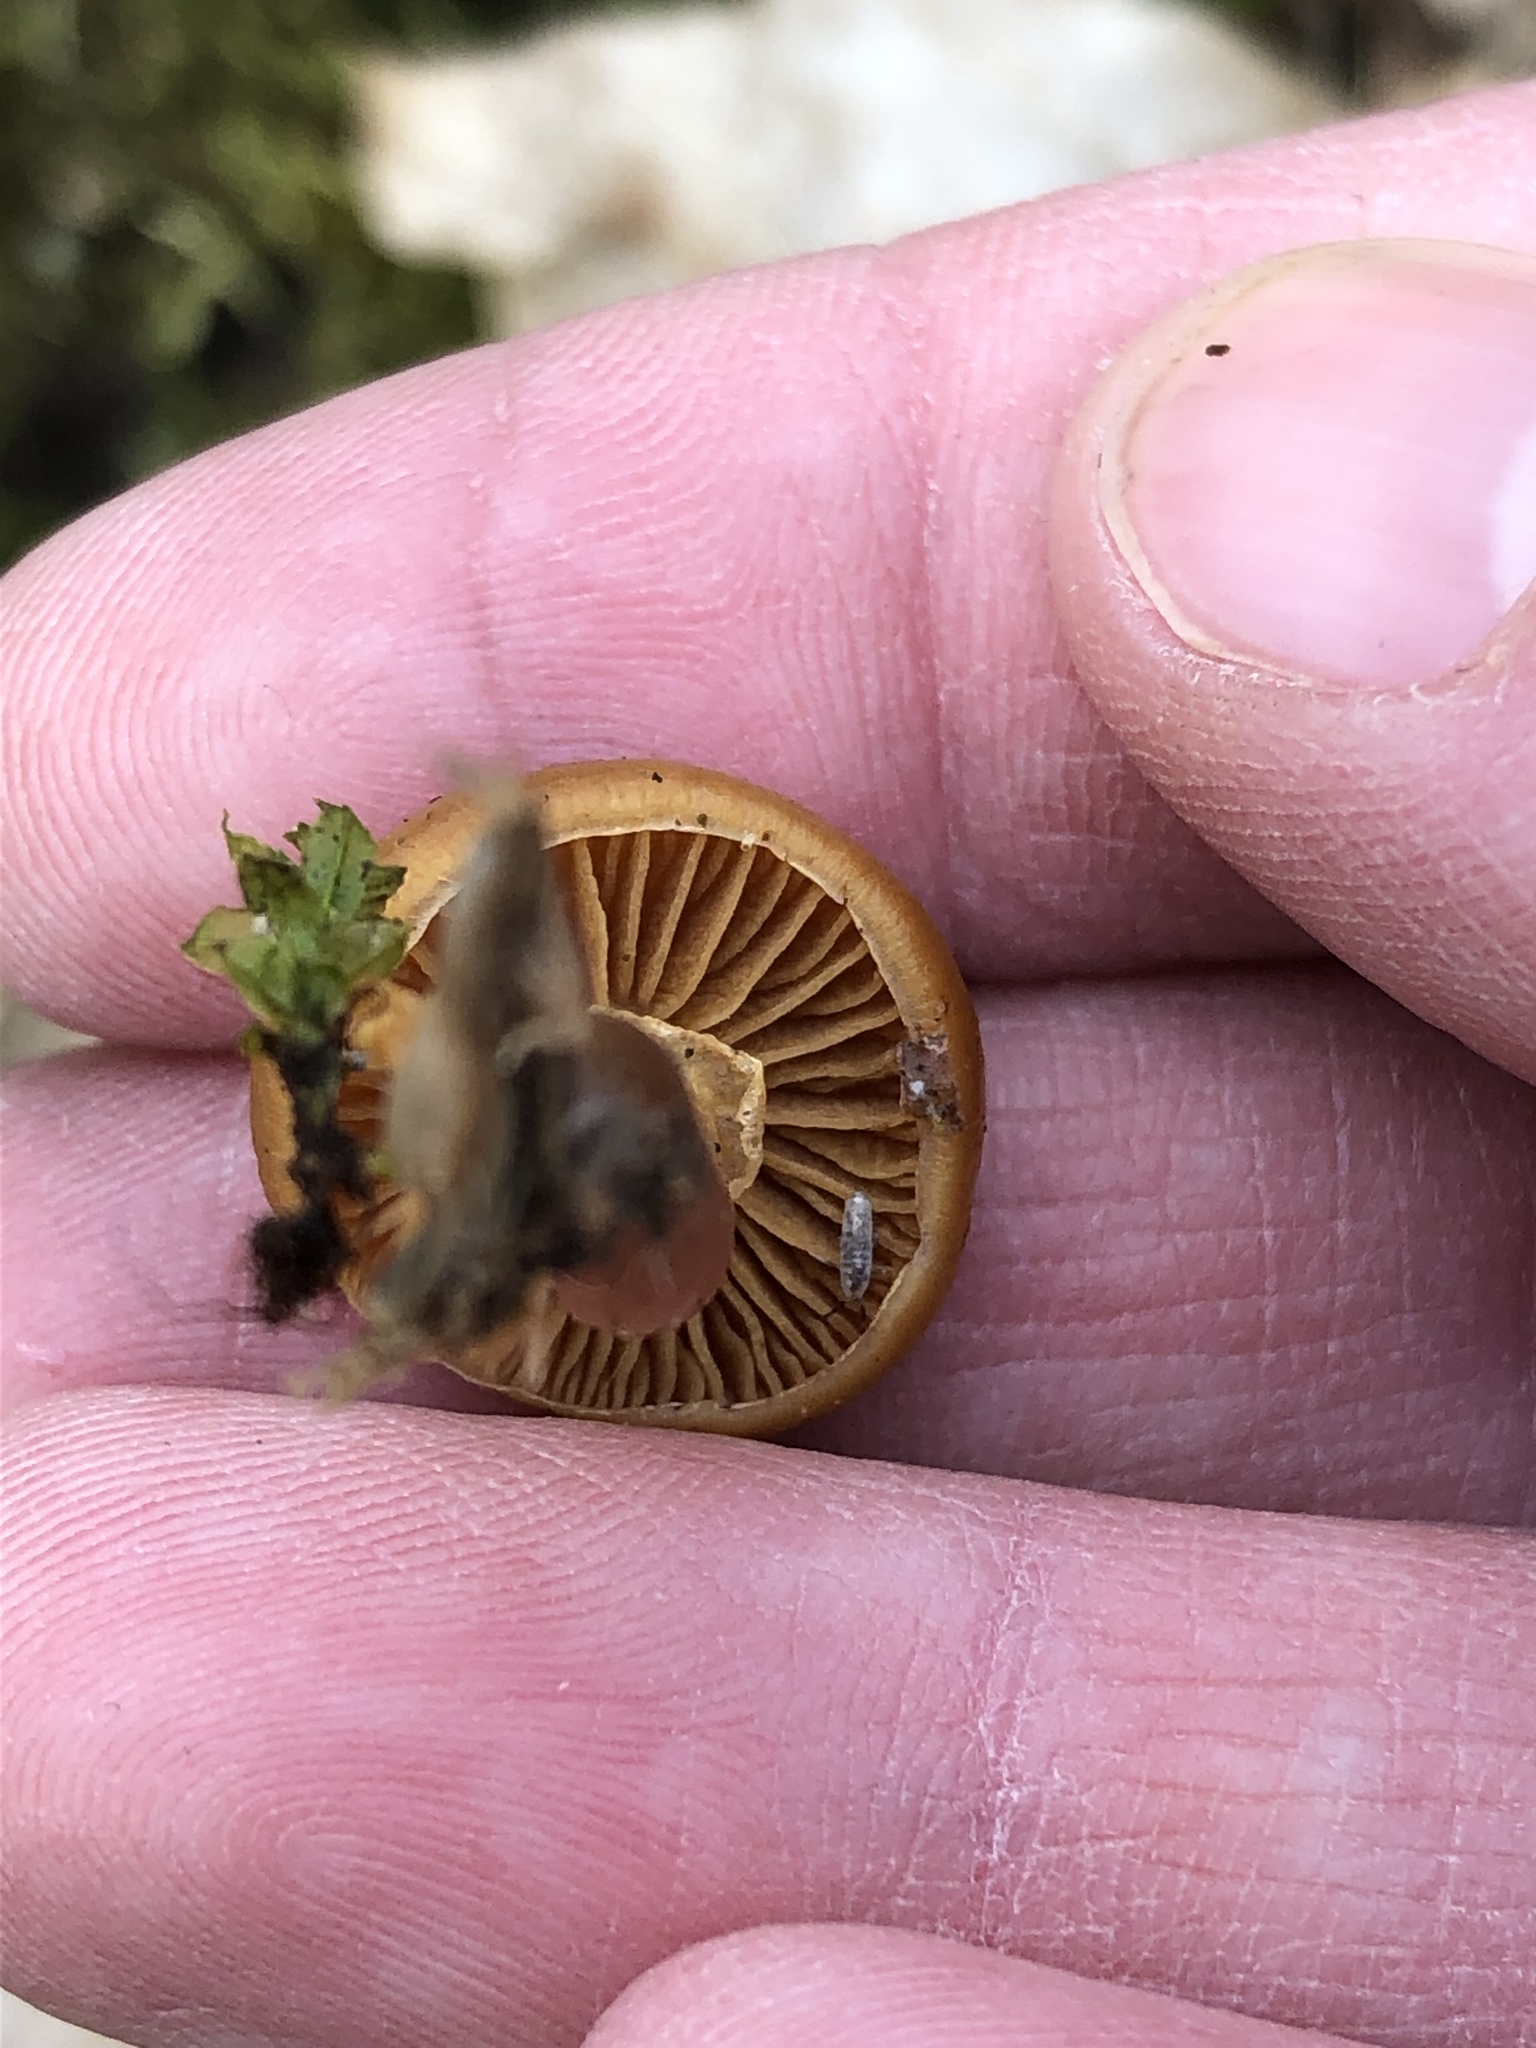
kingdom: Fungi
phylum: Basidiomycota
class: Agaricomycetes
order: Agaricales
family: Hymenogastraceae
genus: Galerina
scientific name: Galerina marginata
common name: Funeral bell
